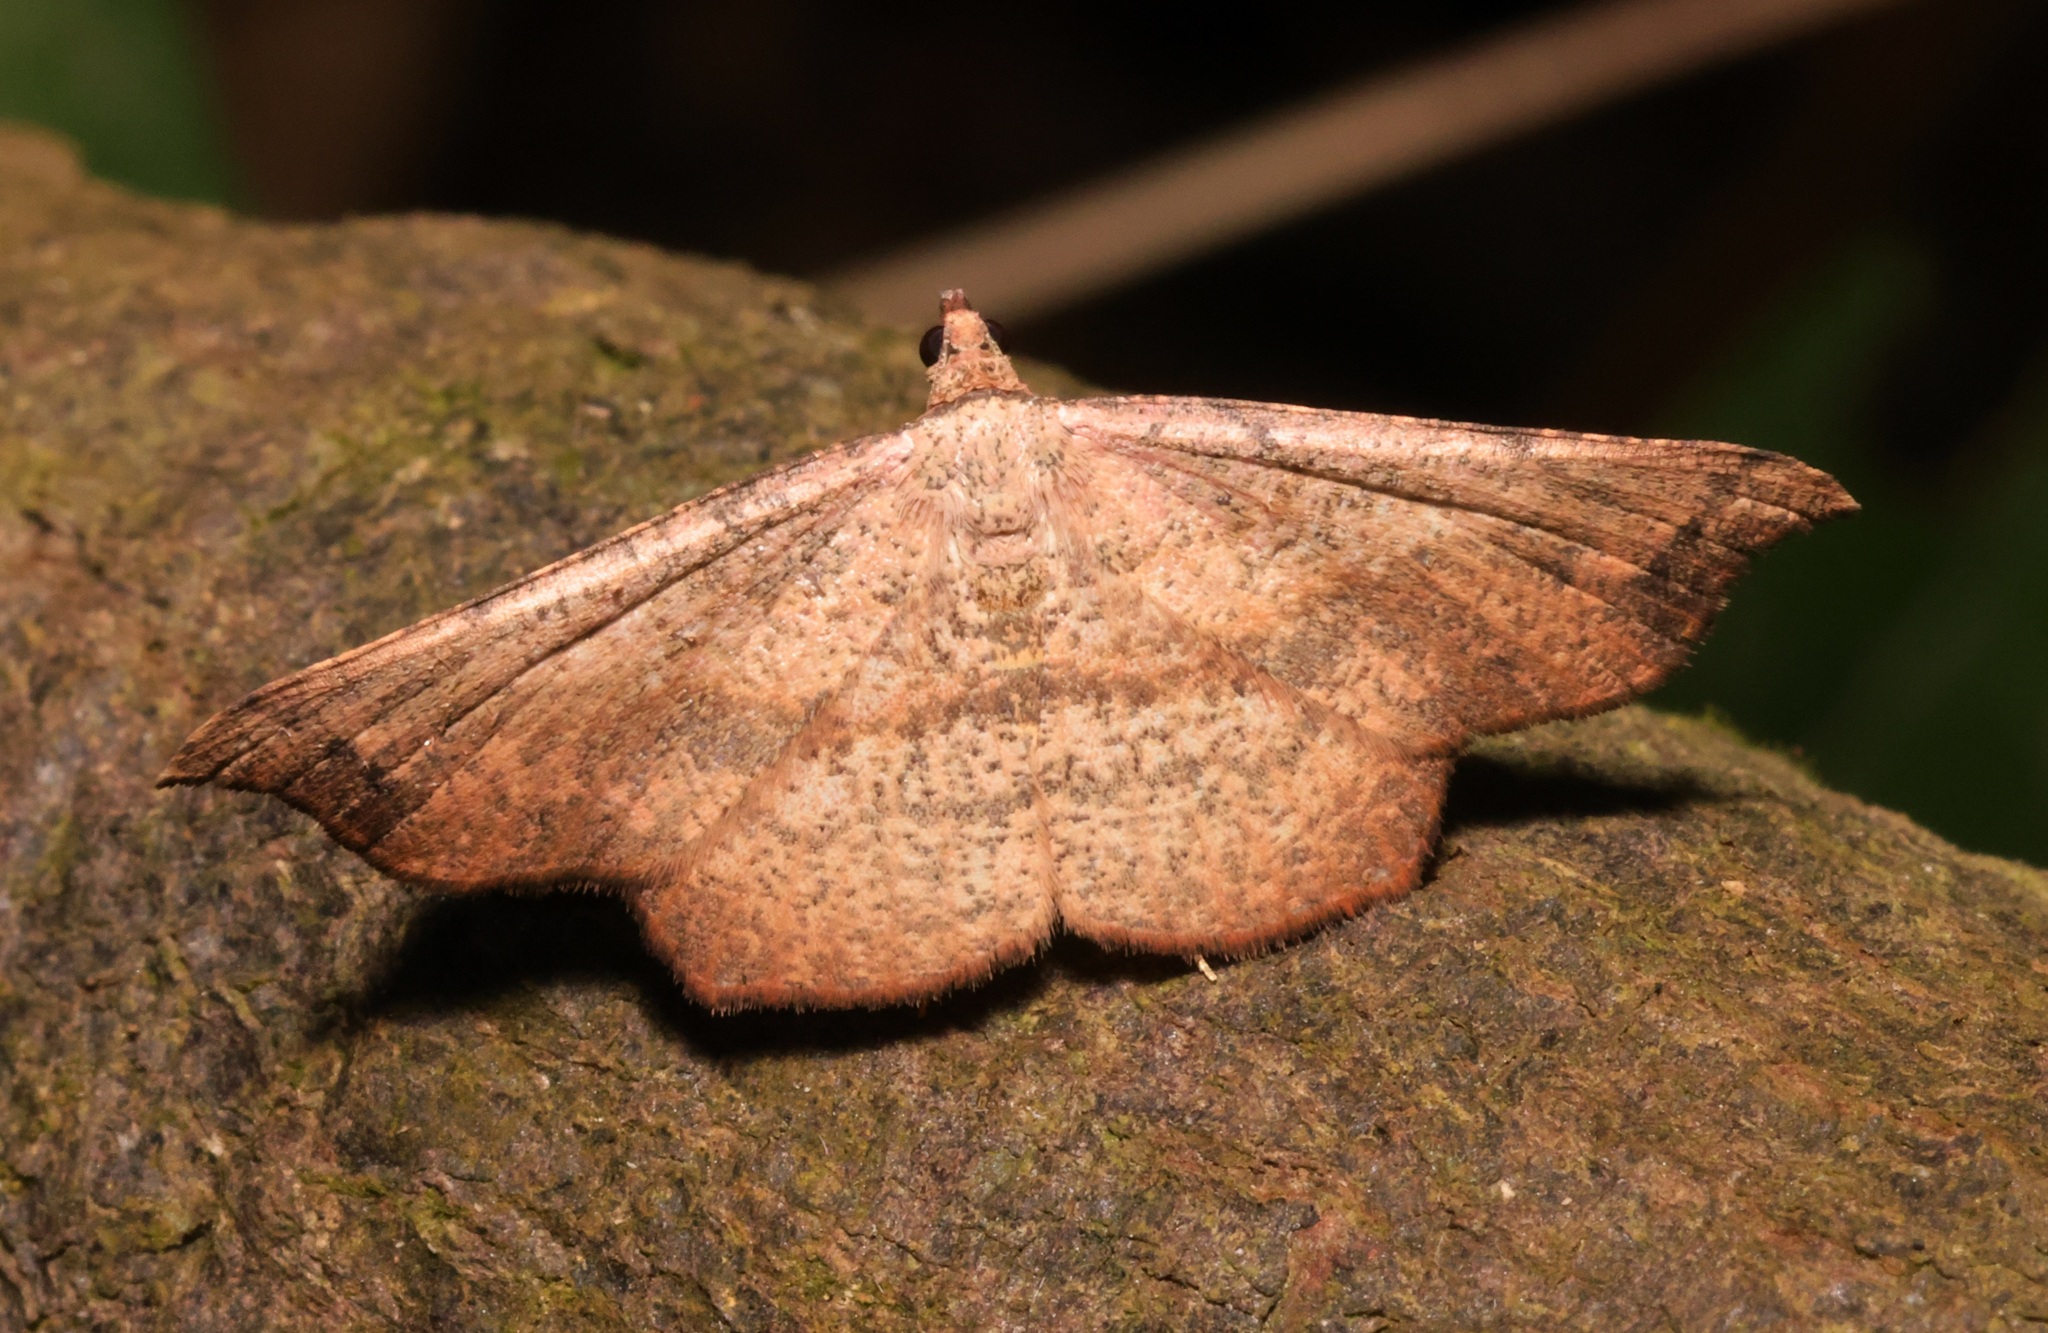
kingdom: Animalia
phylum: Arthropoda
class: Insecta
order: Lepidoptera
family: Geometridae
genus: Ozola
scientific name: Ozola minor
